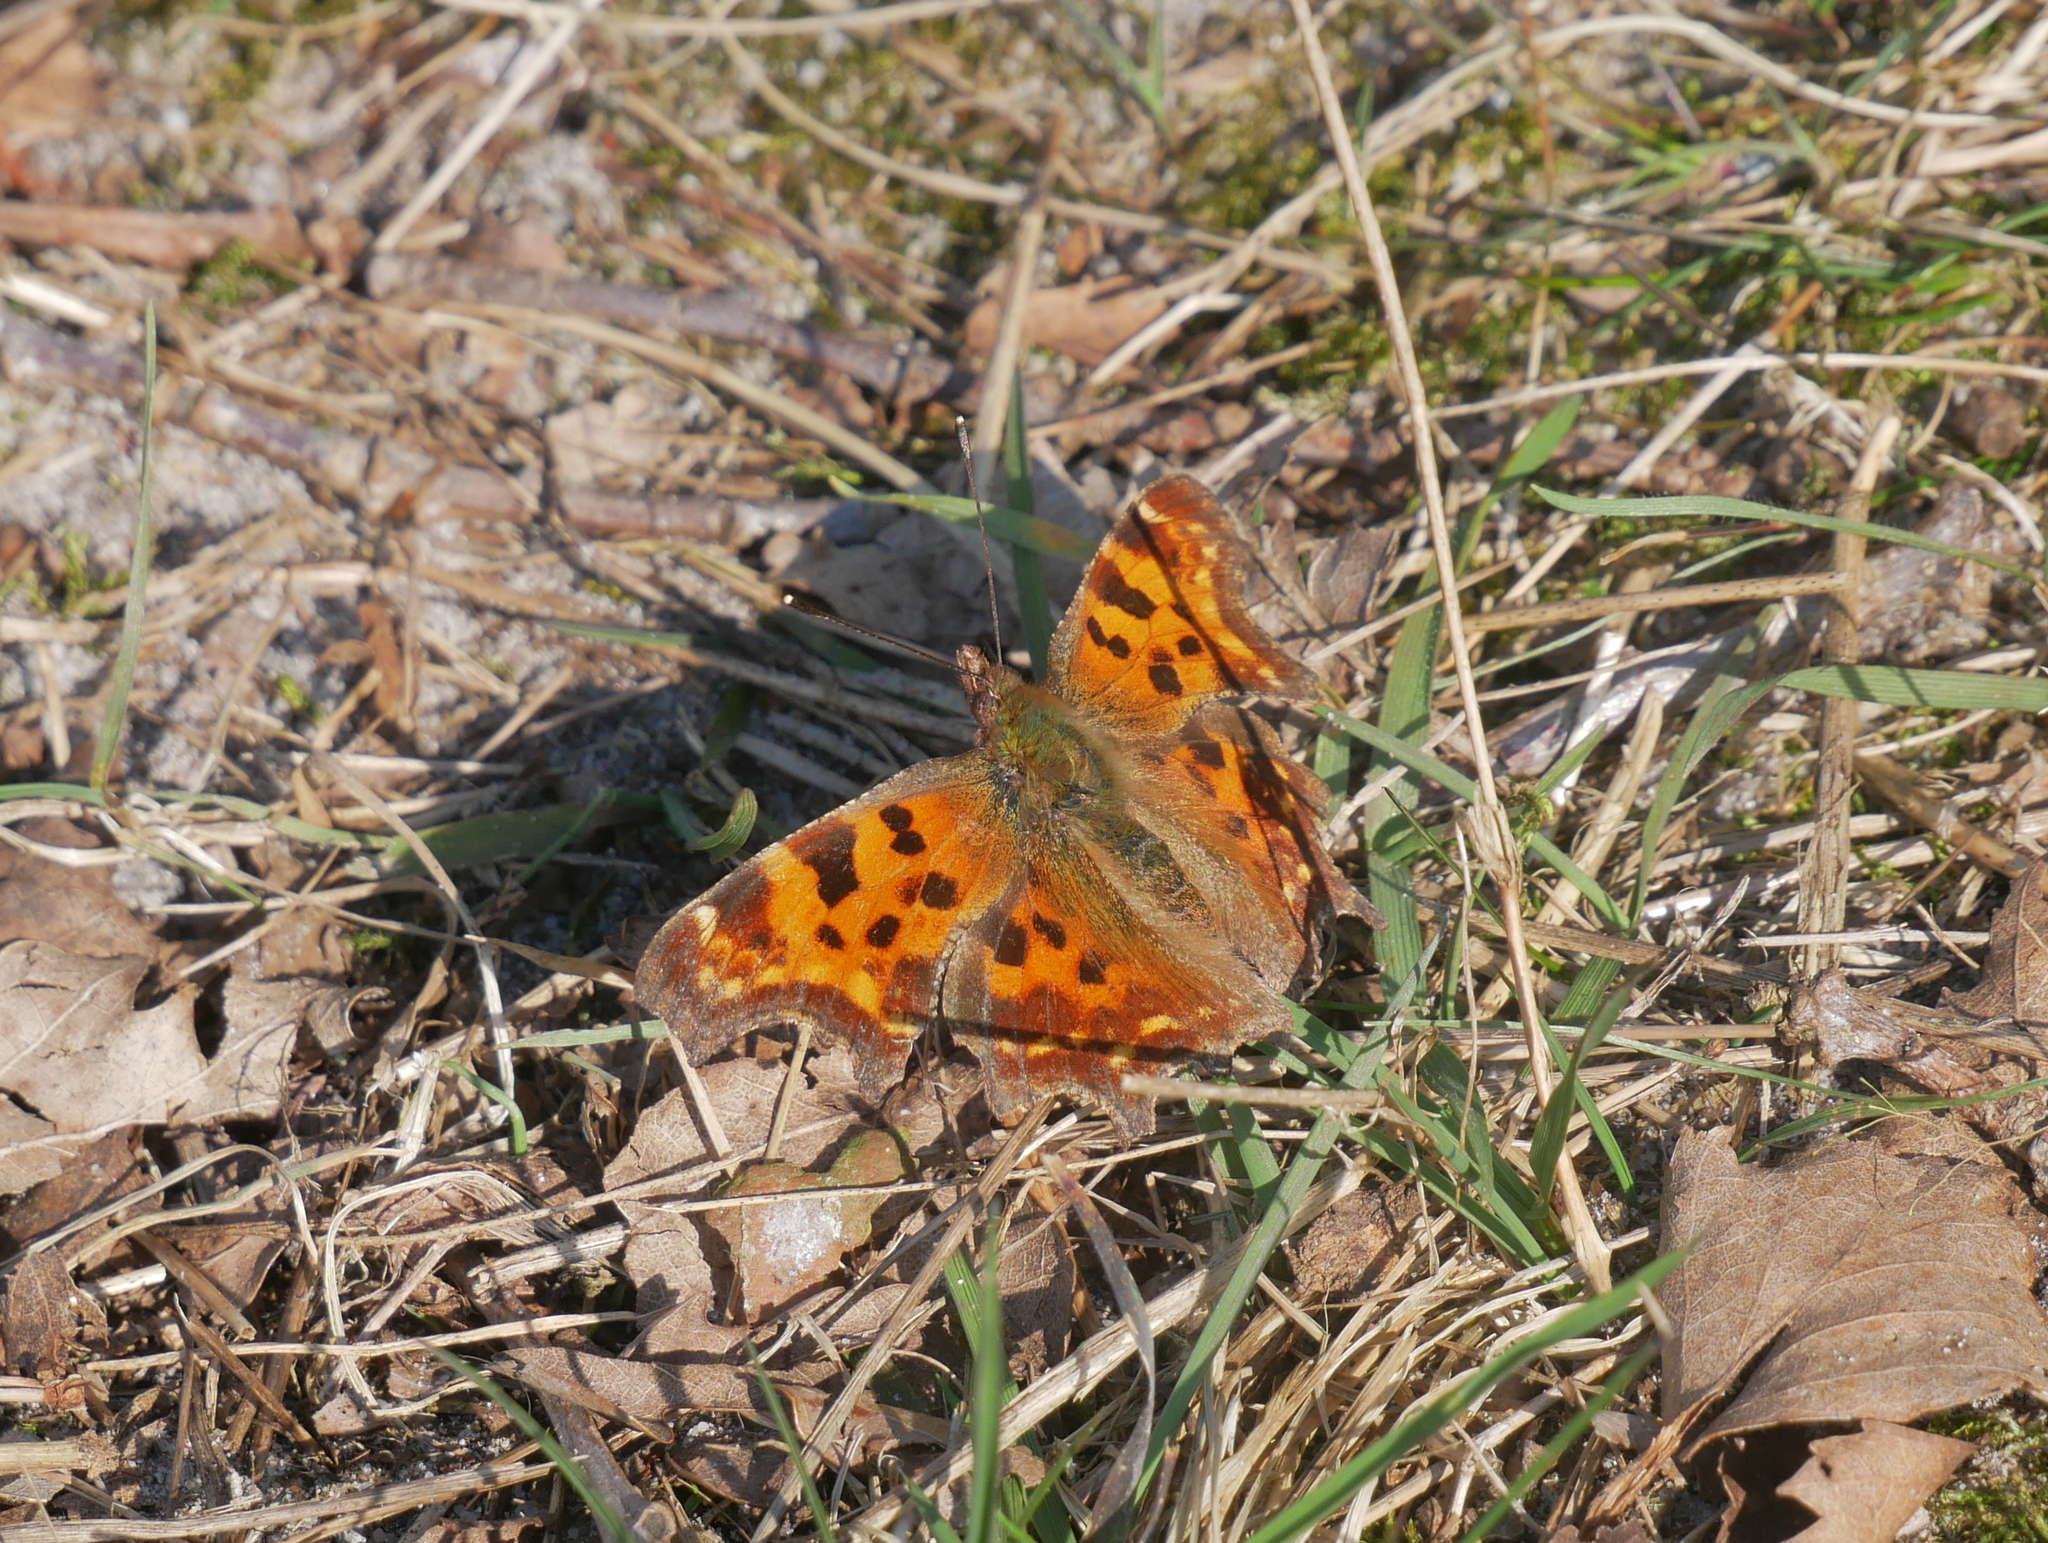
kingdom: Animalia
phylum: Arthropoda
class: Insecta
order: Lepidoptera
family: Nymphalidae
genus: Polygonia
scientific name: Polygonia c-album
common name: Comma
